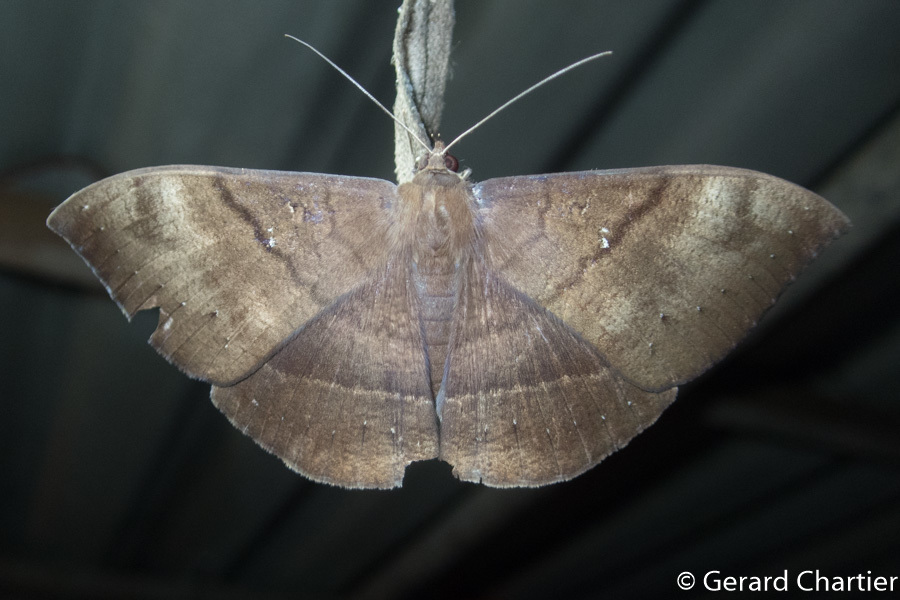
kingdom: Animalia
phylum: Arthropoda
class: Insecta
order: Lepidoptera
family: Erebidae
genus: Lygniodes
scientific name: Lygniodes hypoleuca
